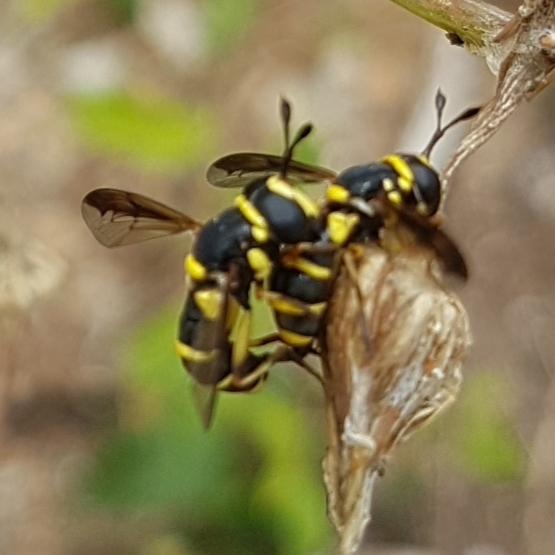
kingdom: Animalia
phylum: Arthropoda
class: Insecta
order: Diptera
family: Syrphidae
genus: Ceriana
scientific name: Ceriana vespiformis
